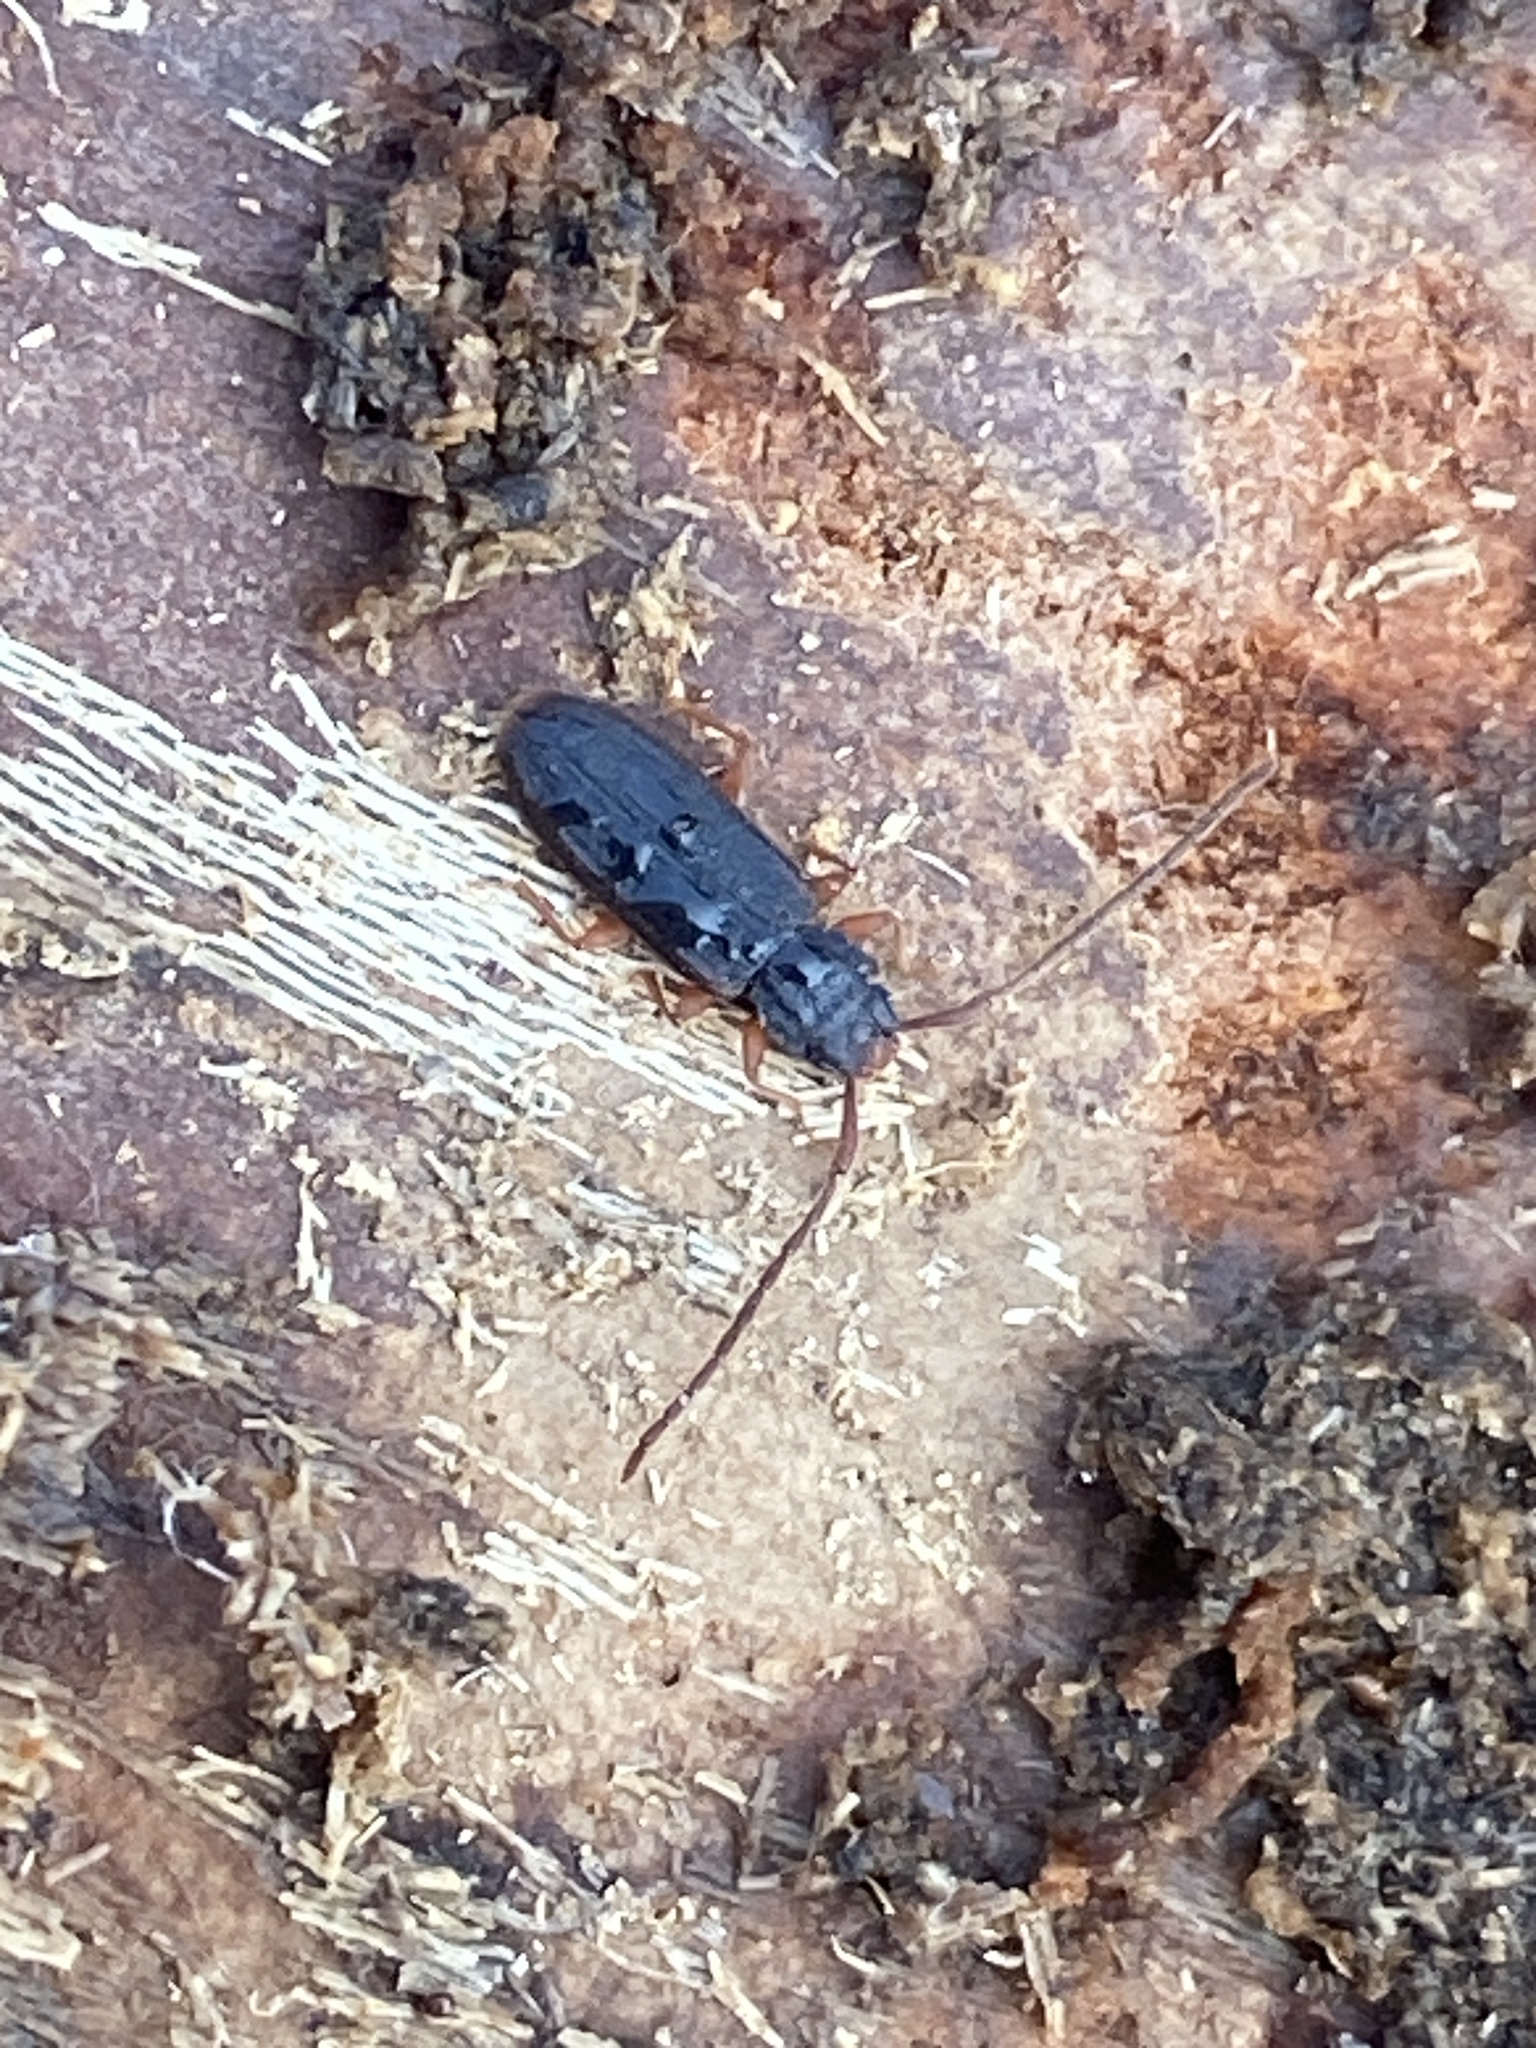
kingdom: Animalia
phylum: Arthropoda
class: Insecta
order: Coleoptera
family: Silvanidae
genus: Uleiota
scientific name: Uleiota planatus
